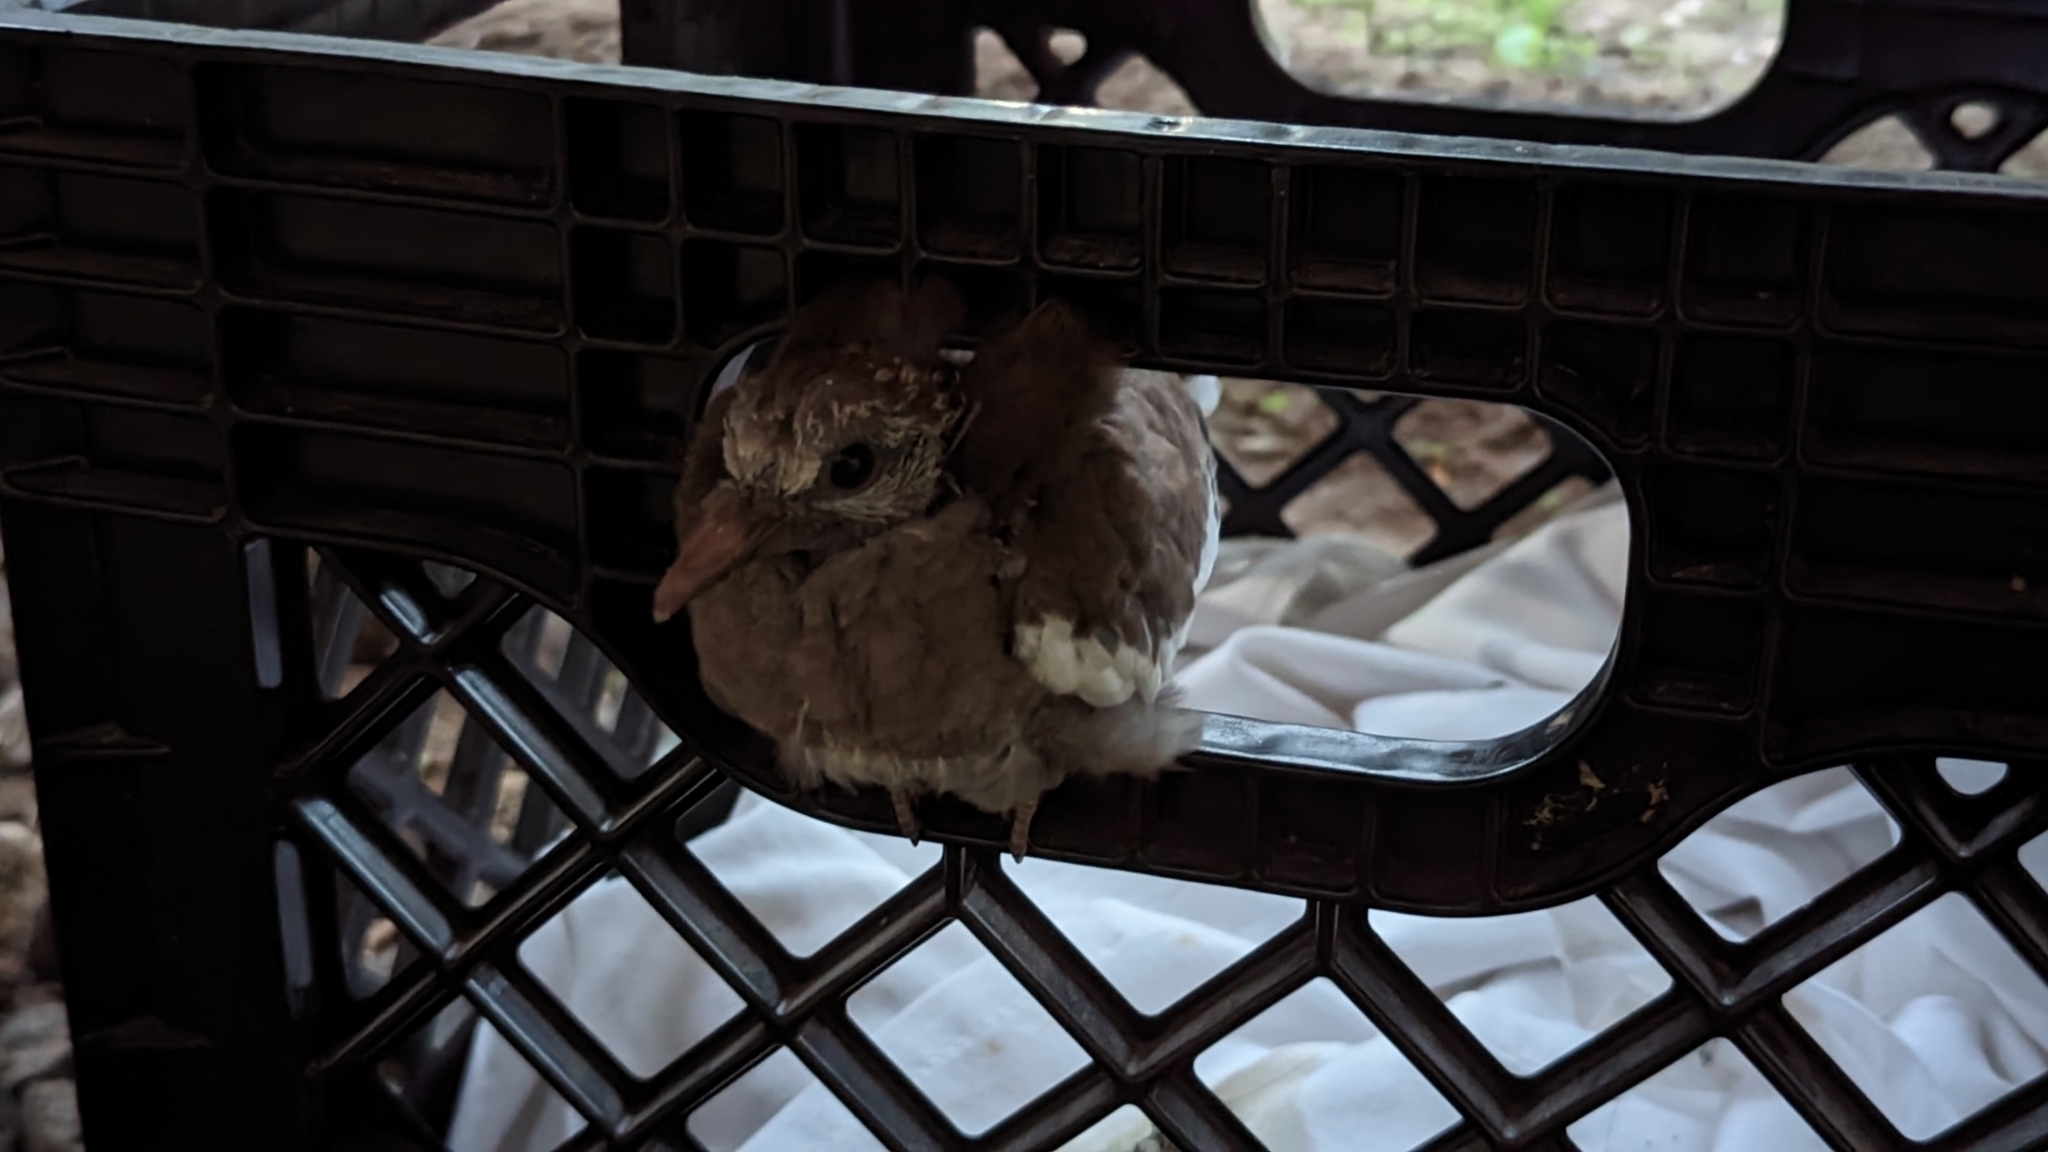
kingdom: Animalia
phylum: Chordata
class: Aves
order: Columbiformes
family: Columbidae
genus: Zenaida
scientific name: Zenaida asiatica
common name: White-winged dove
